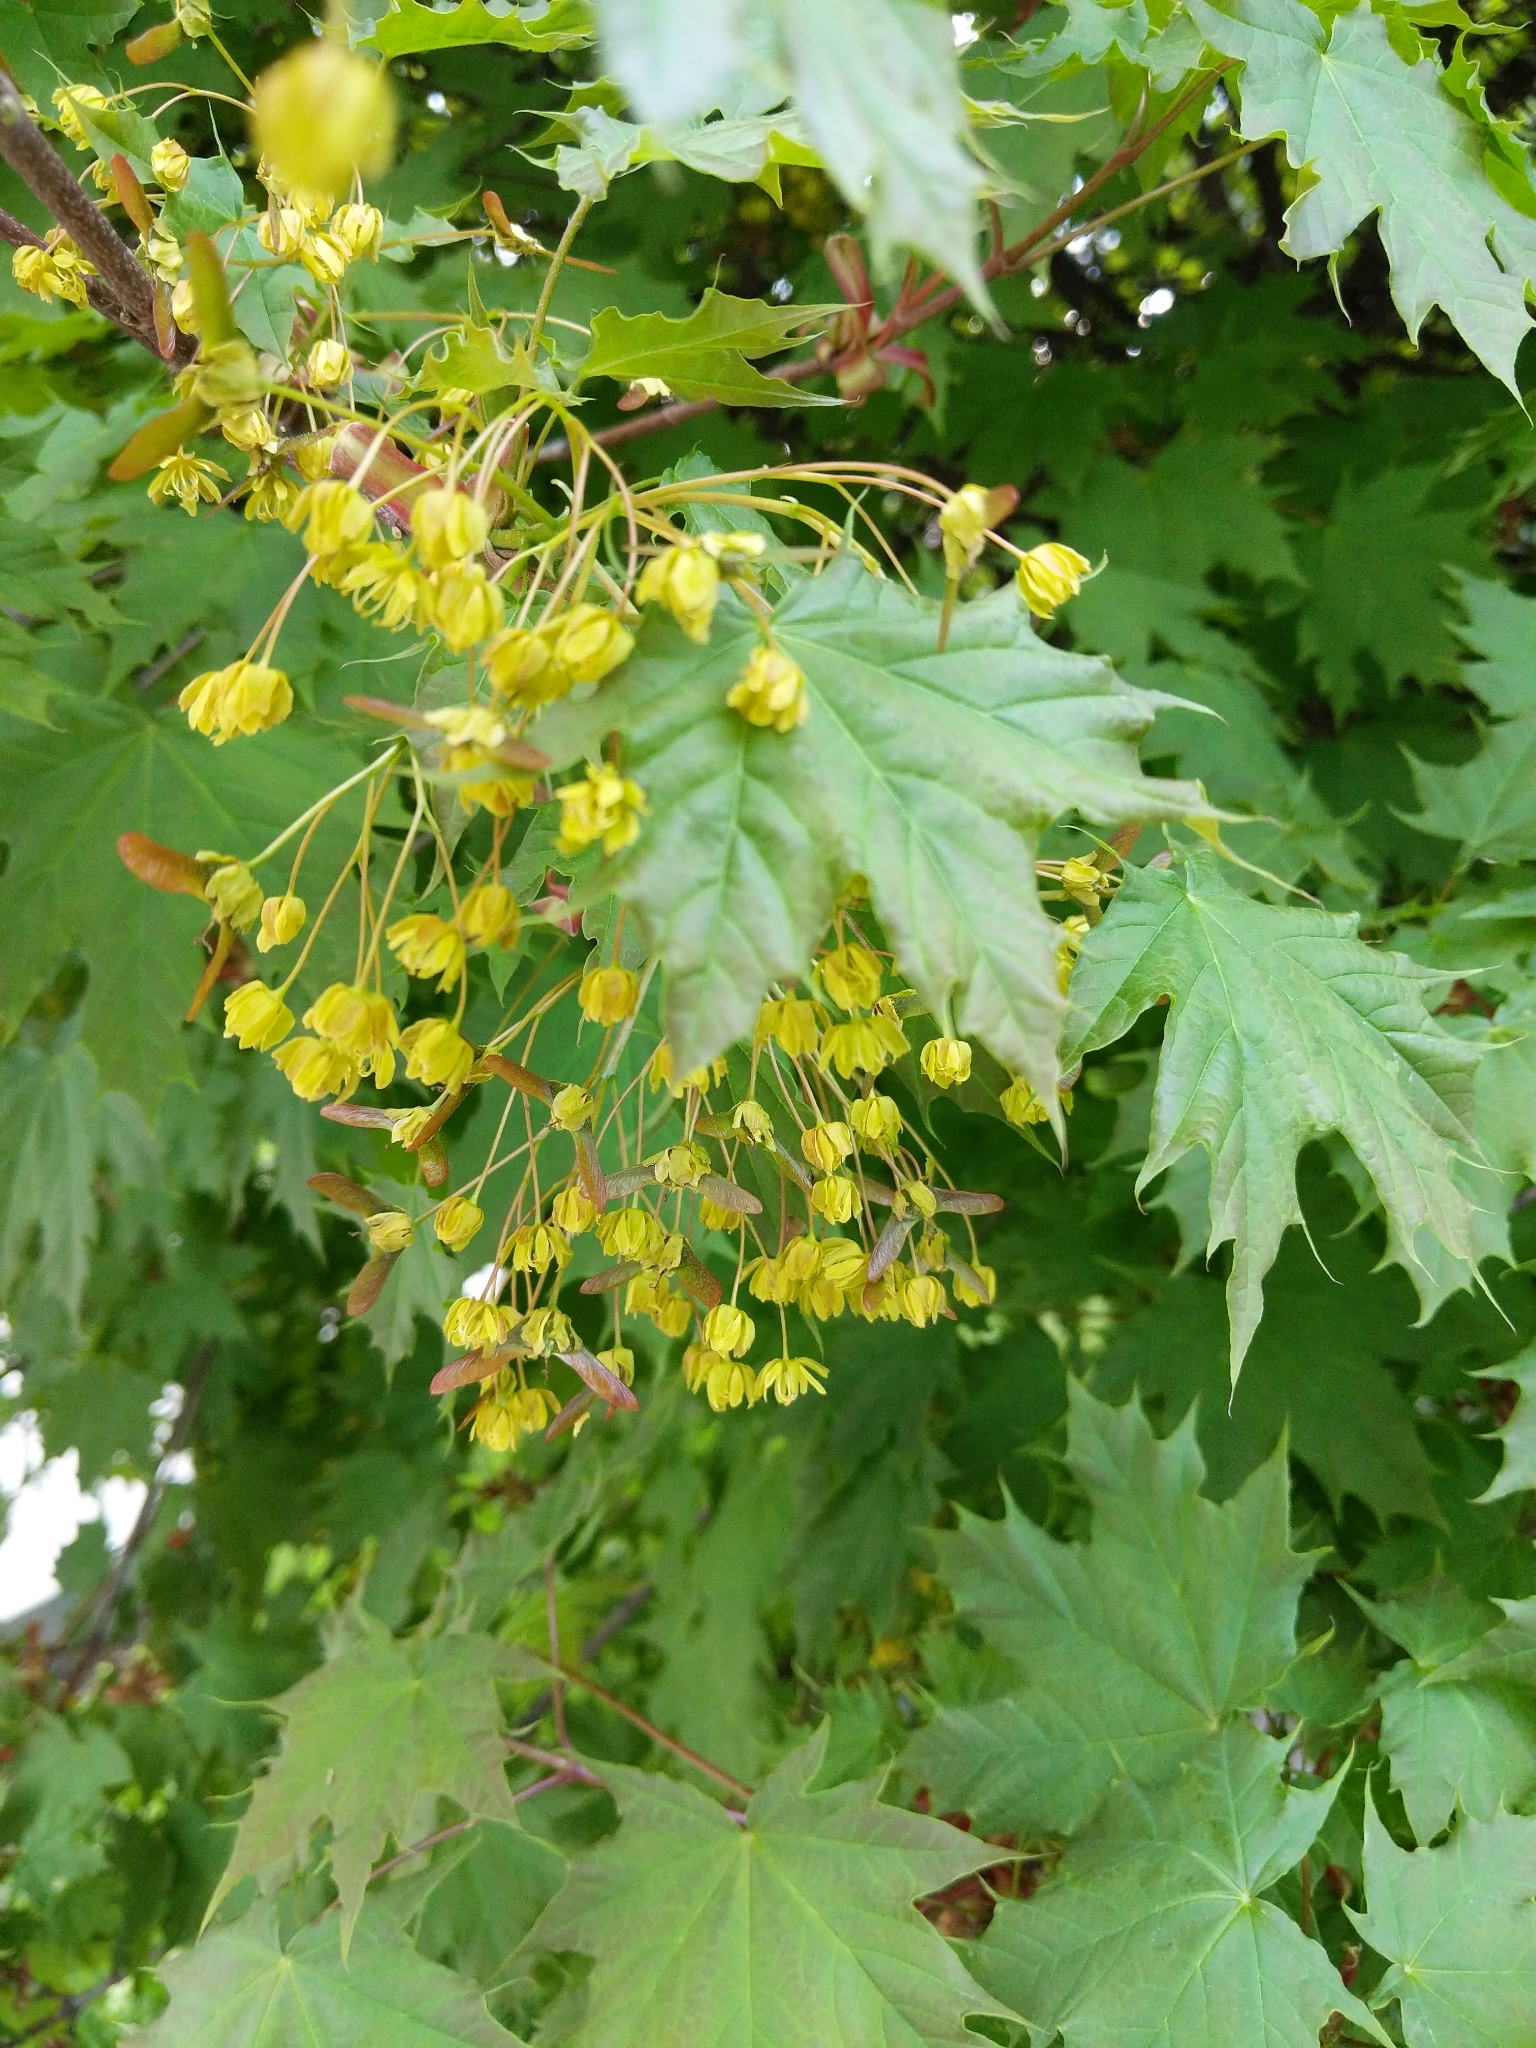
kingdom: Plantae
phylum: Tracheophyta
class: Magnoliopsida
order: Sapindales
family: Sapindaceae
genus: Acer
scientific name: Acer platanoides
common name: Norway maple
